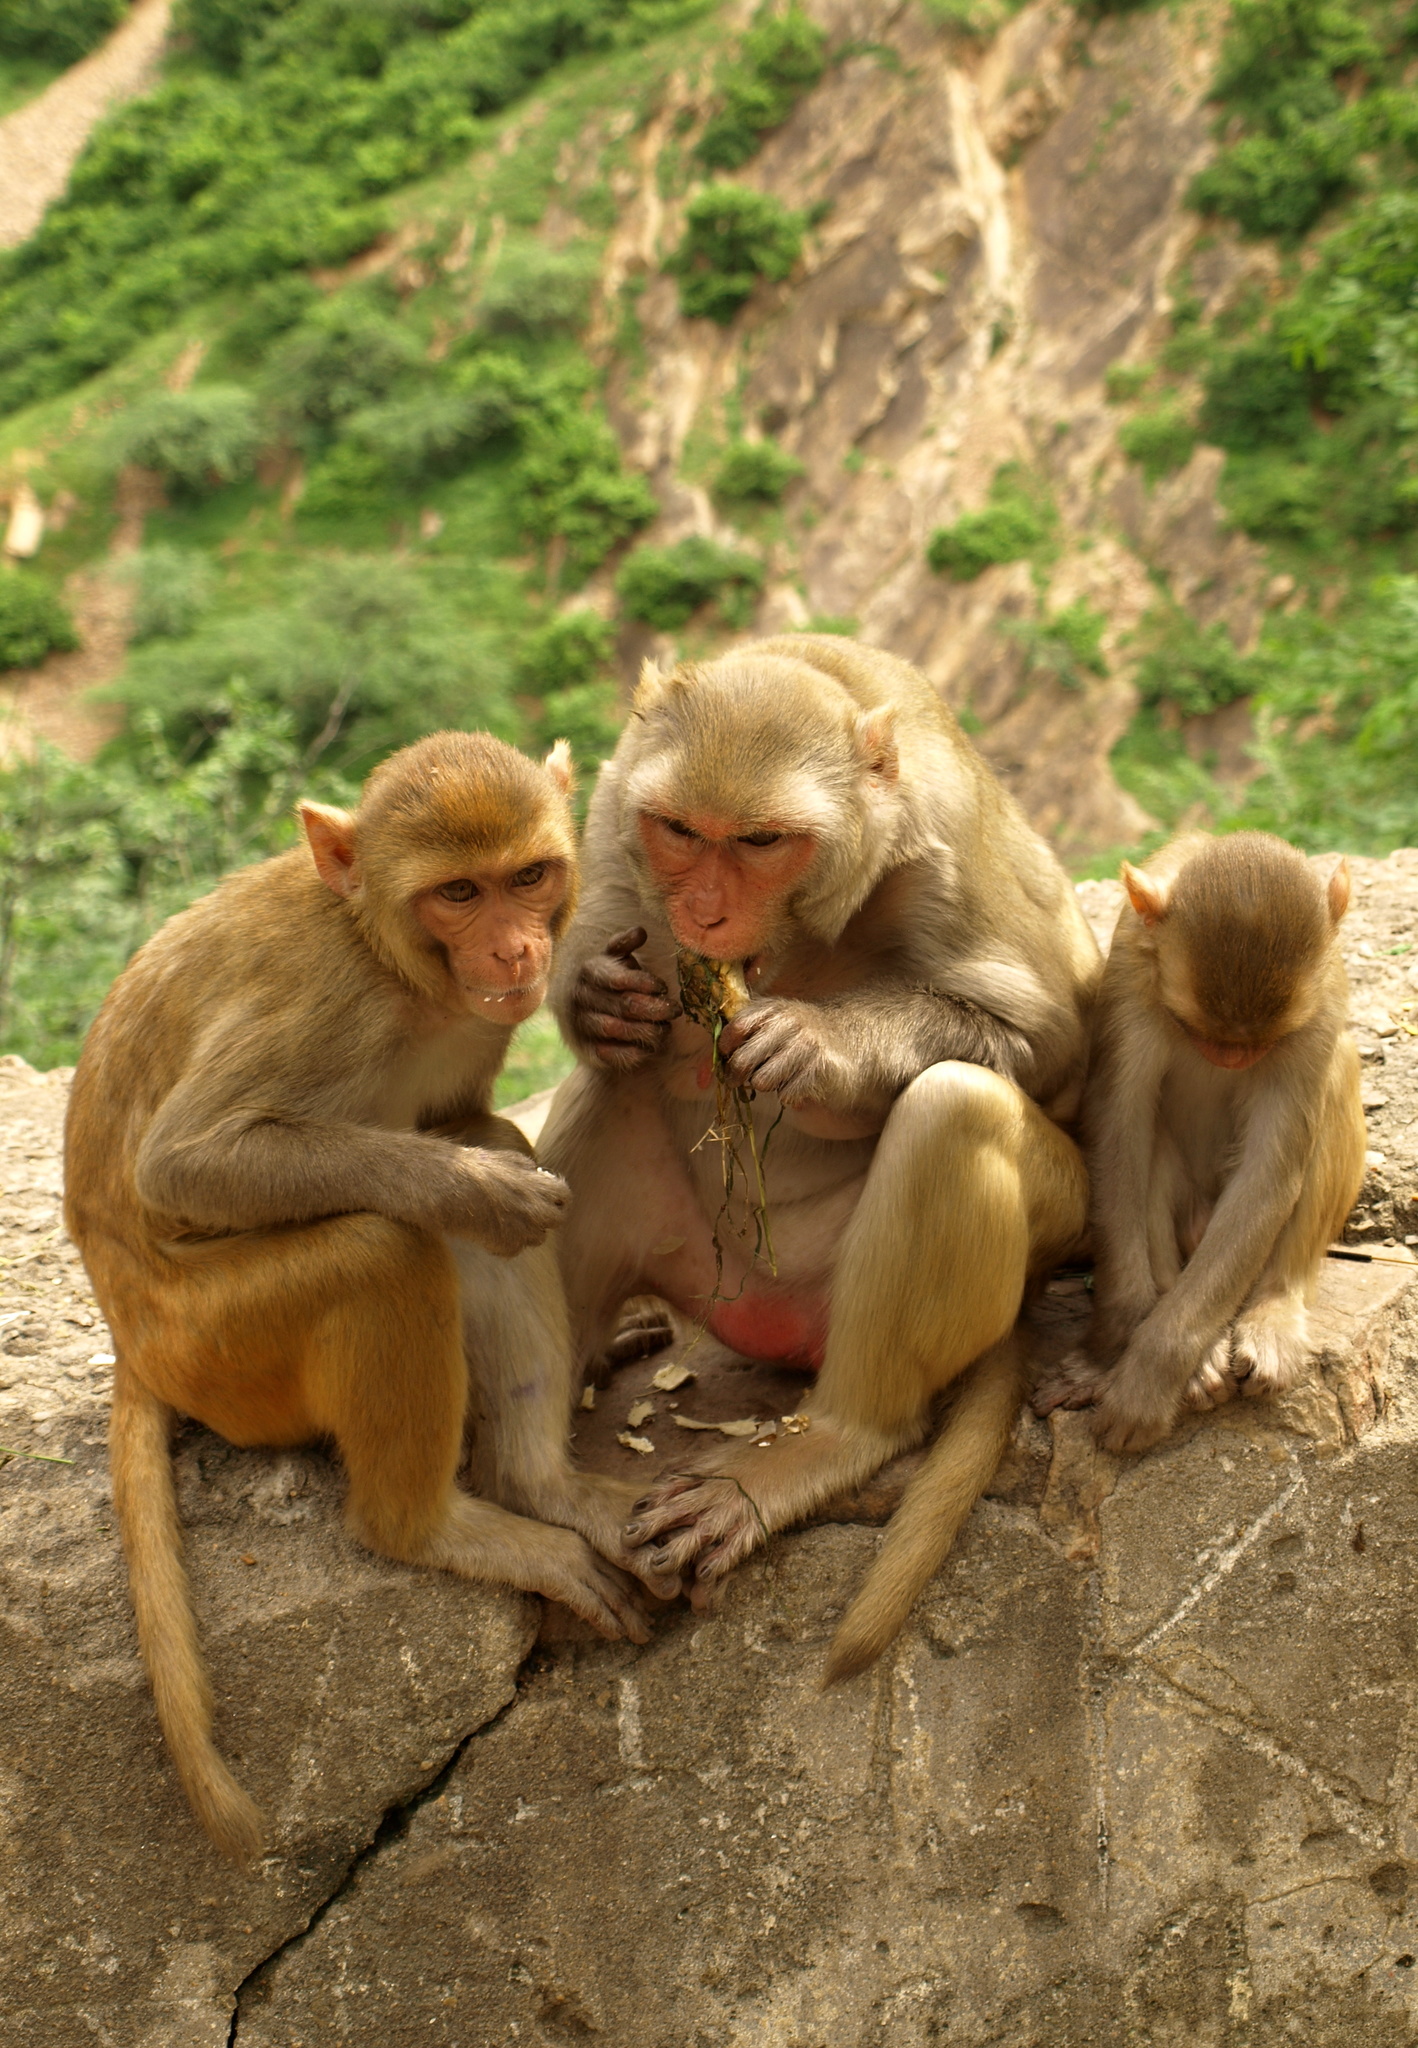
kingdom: Animalia
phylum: Chordata
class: Mammalia
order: Primates
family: Cercopithecidae
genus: Macaca
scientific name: Macaca mulatta
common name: Rhesus monkey
